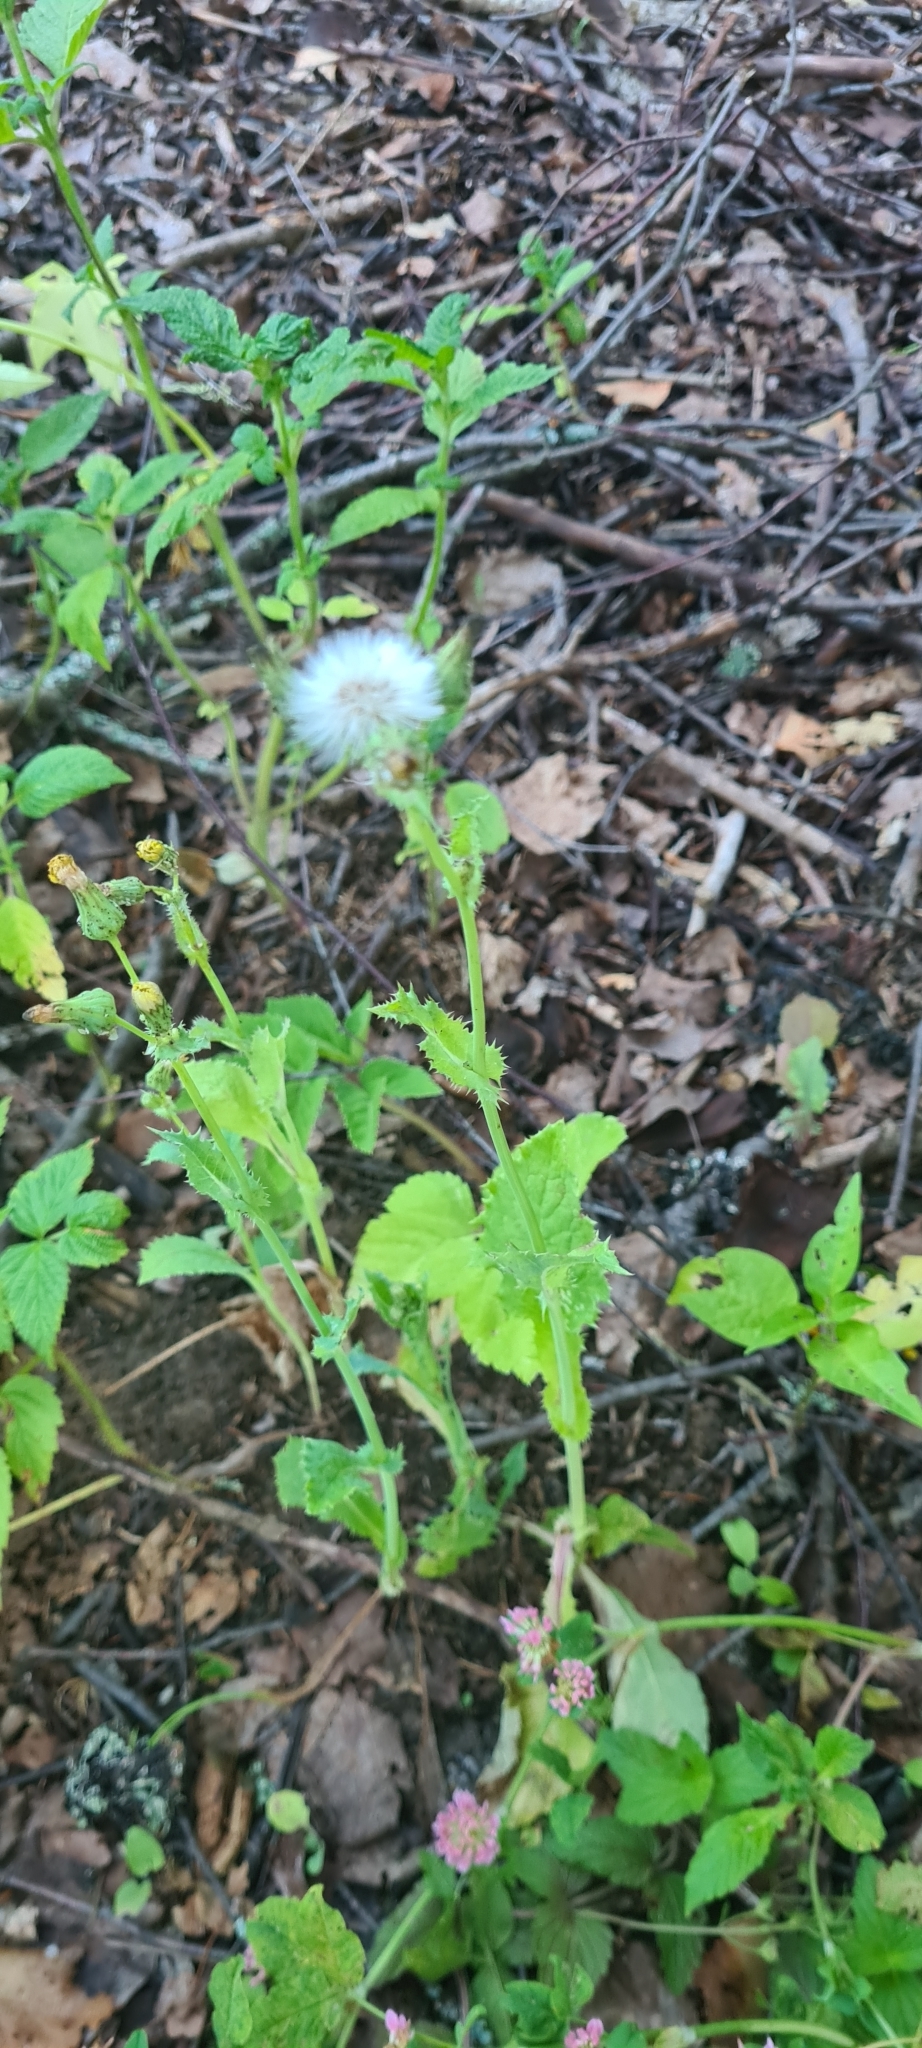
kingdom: Plantae
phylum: Tracheophyta
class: Magnoliopsida
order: Asterales
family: Asteraceae
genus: Sonchus
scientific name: Sonchus oleraceus
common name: Common sowthistle
